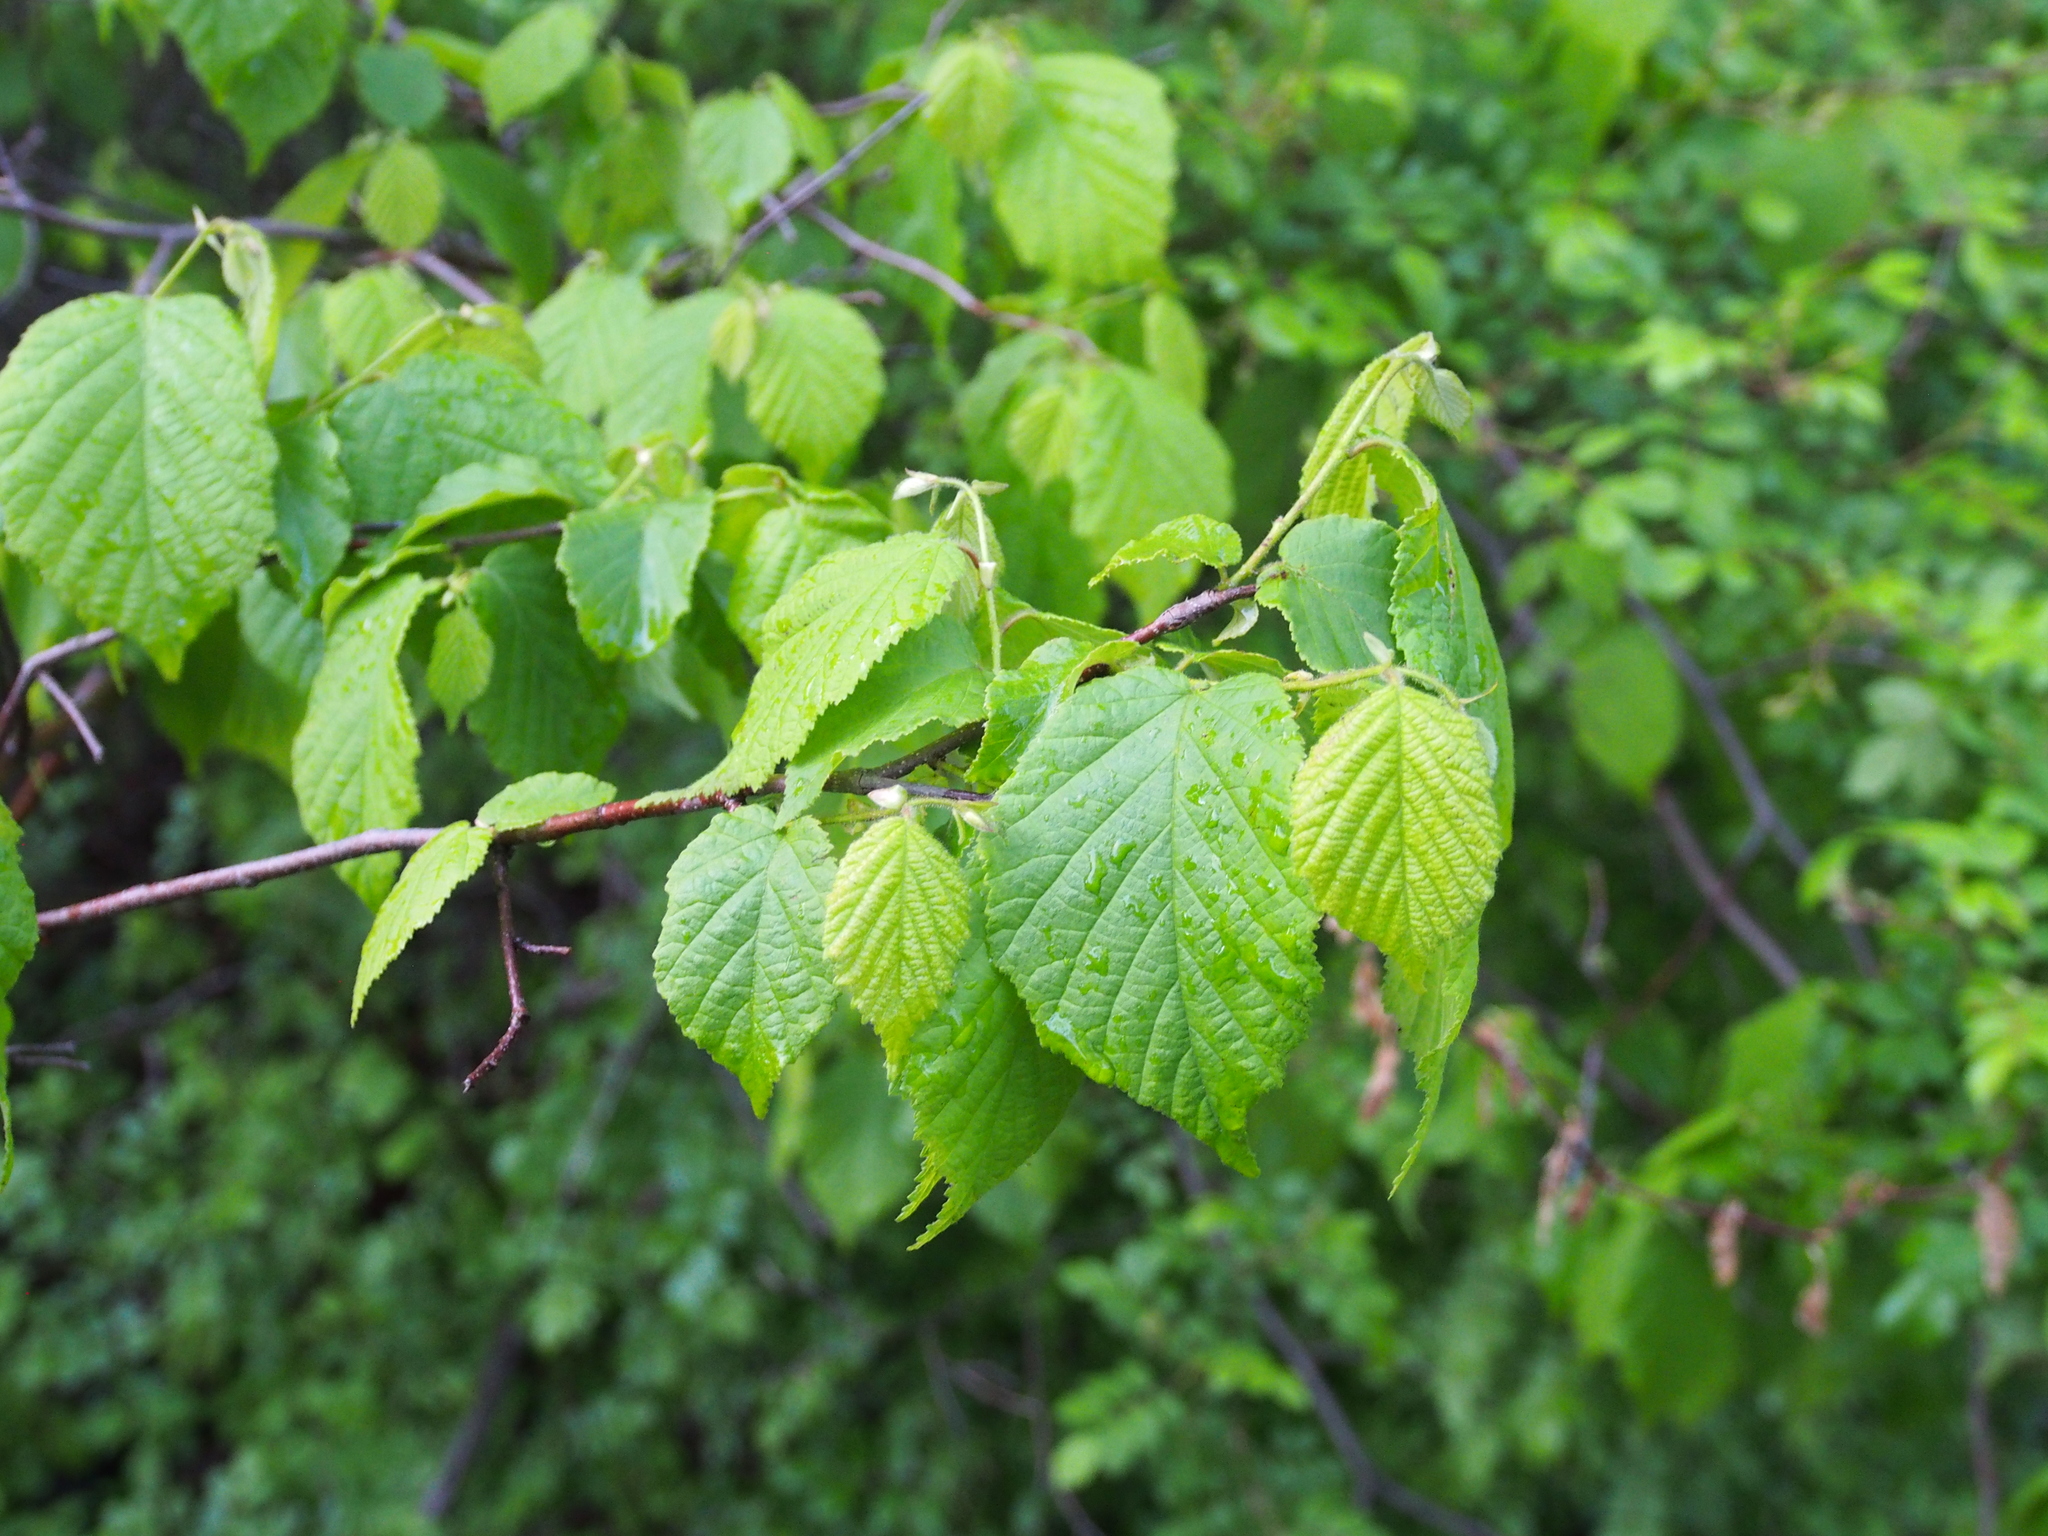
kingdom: Plantae
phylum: Tracheophyta
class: Magnoliopsida
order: Fagales
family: Betulaceae
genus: Corylus
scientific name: Corylus americana
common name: American hazel
